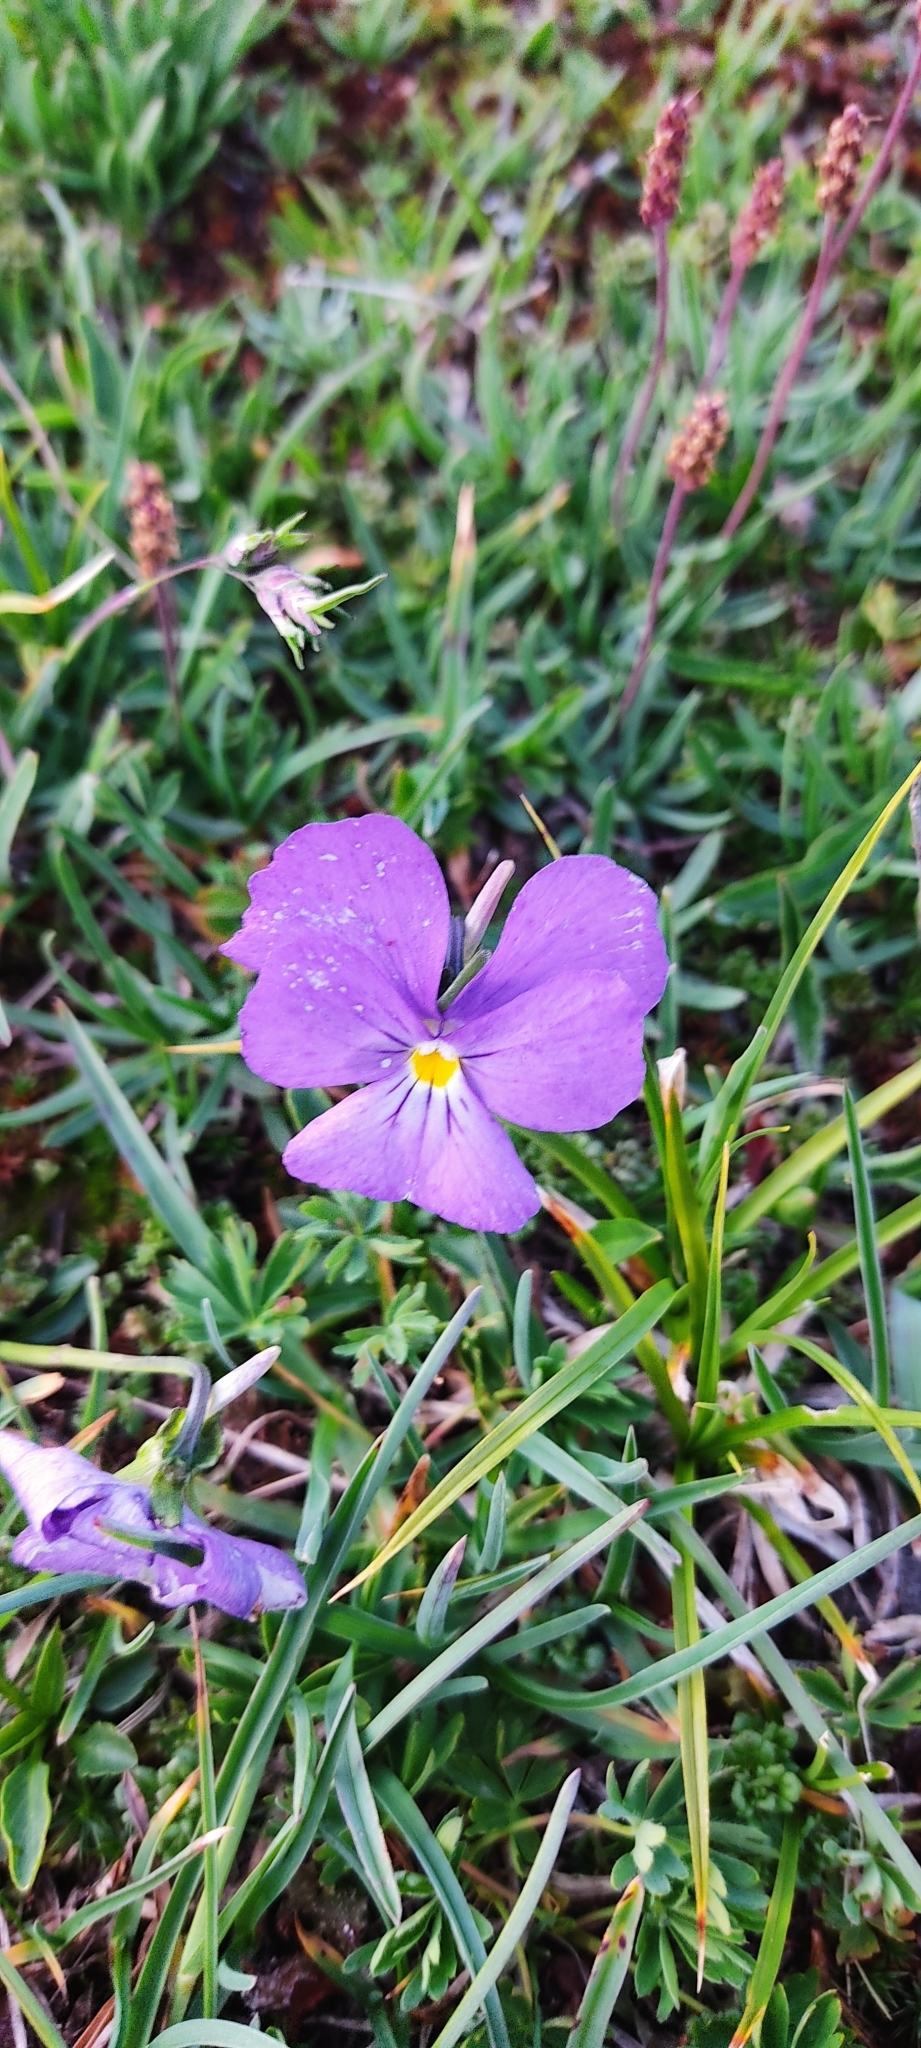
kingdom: Plantae
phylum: Tracheophyta
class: Magnoliopsida
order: Malpighiales
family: Violaceae
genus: Viola
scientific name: Viola calcarata
